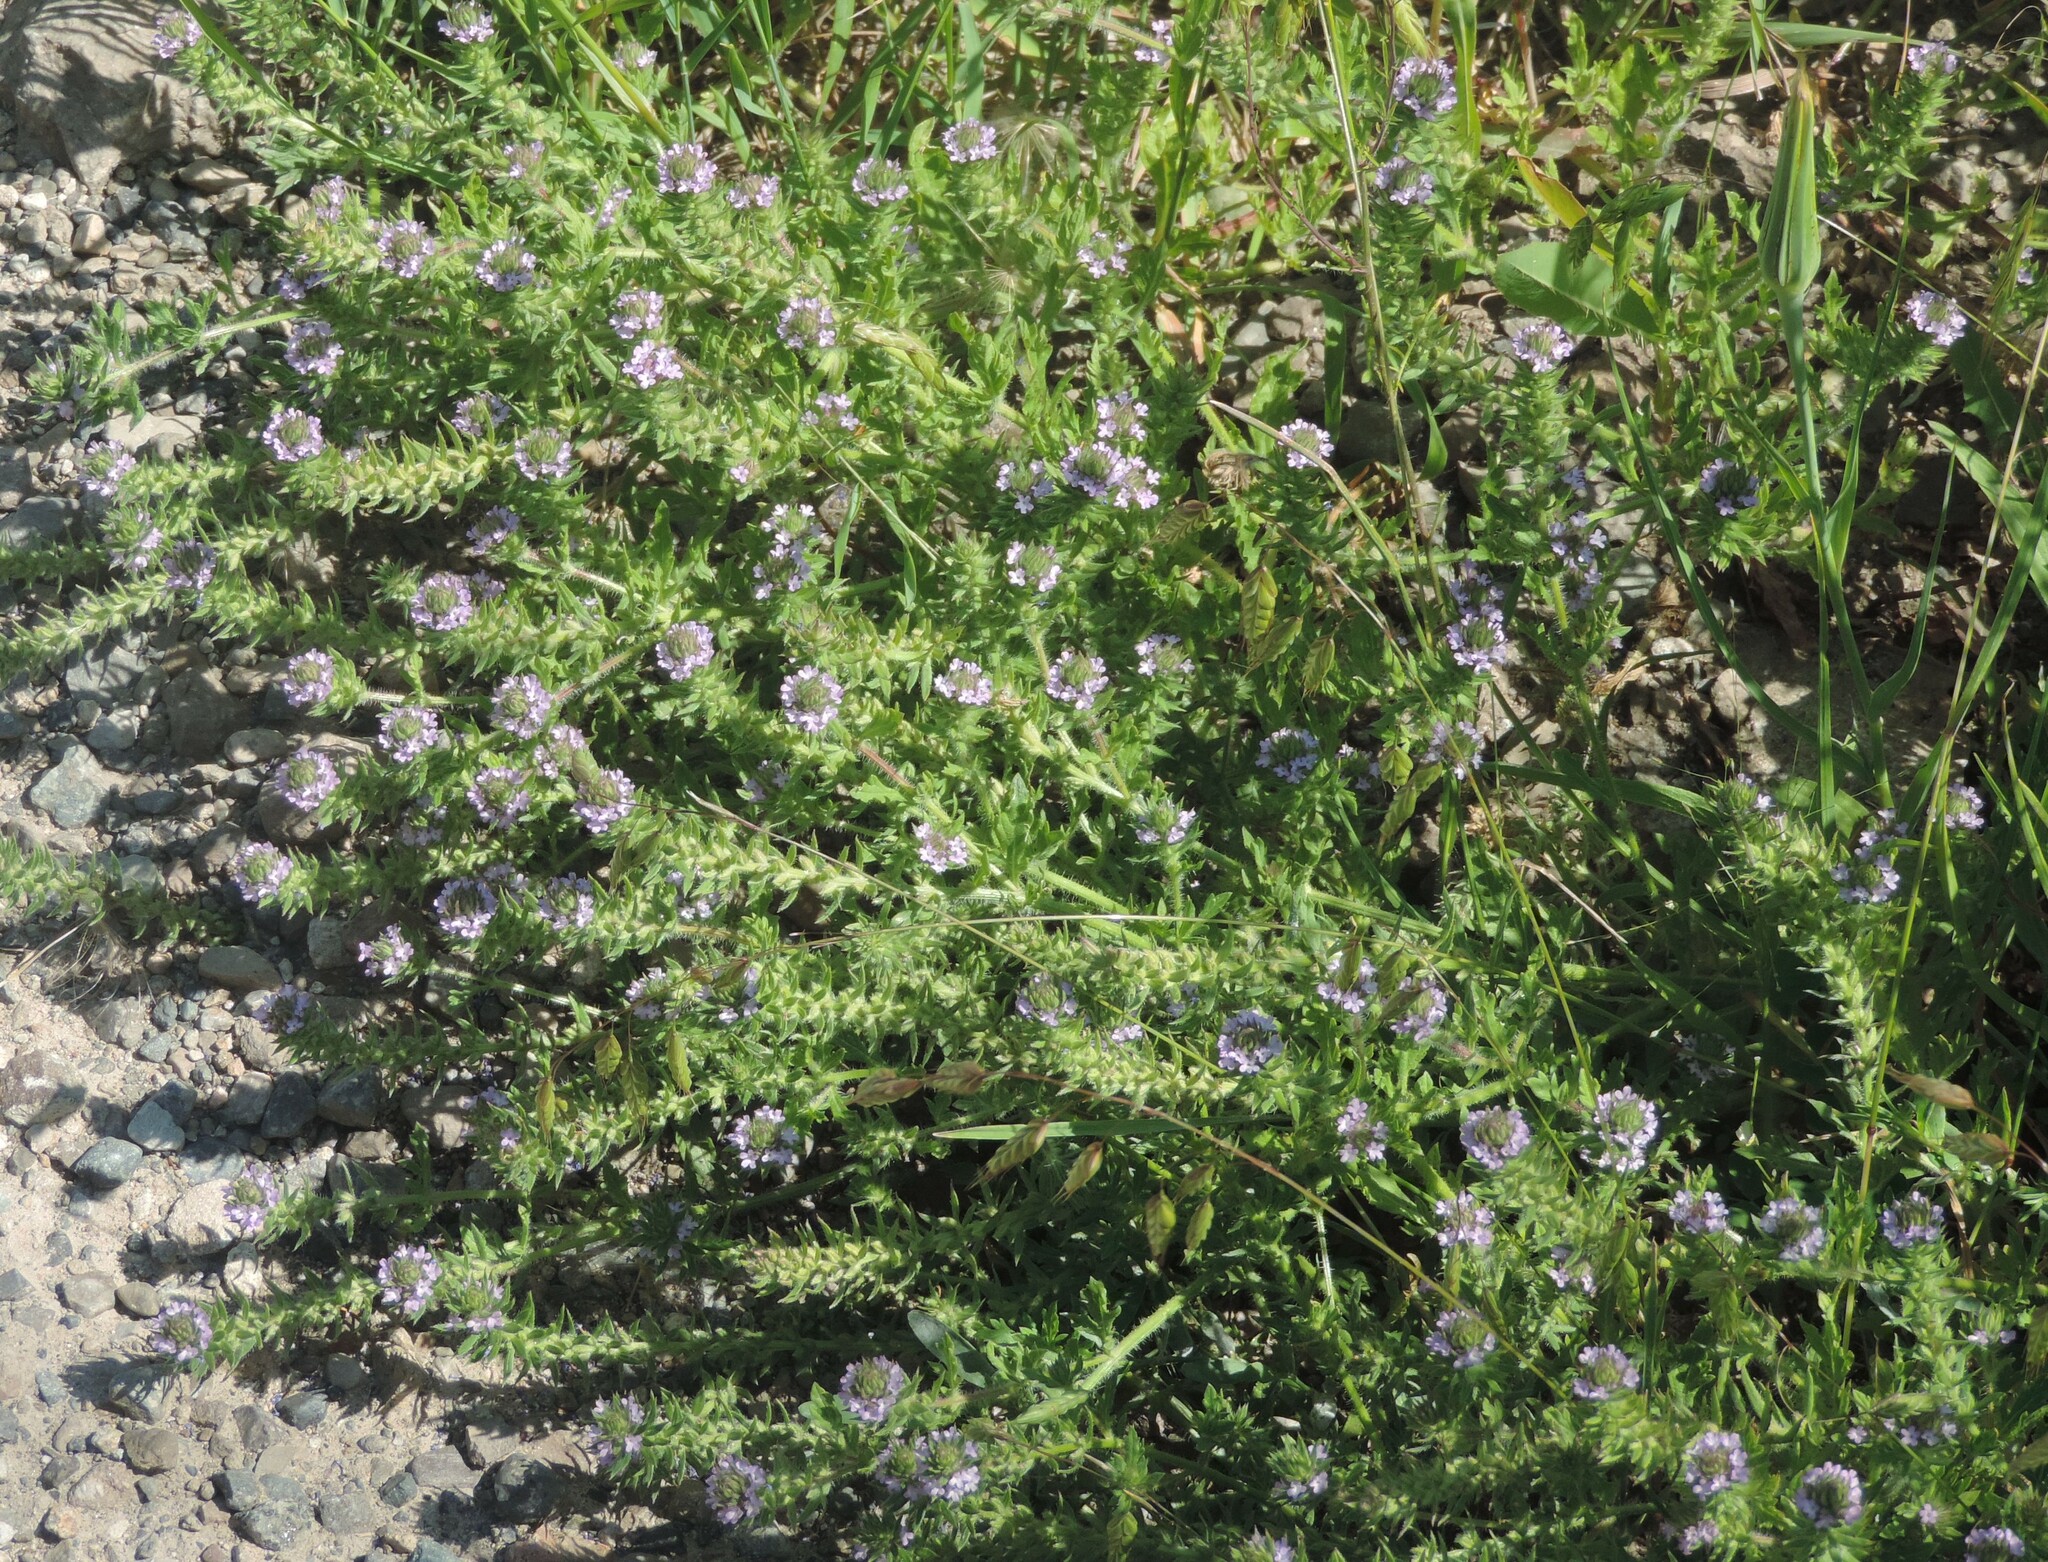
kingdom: Plantae
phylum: Tracheophyta
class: Magnoliopsida
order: Lamiales
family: Verbenaceae
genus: Verbena
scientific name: Verbena bracteata
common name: Bracted vervain
